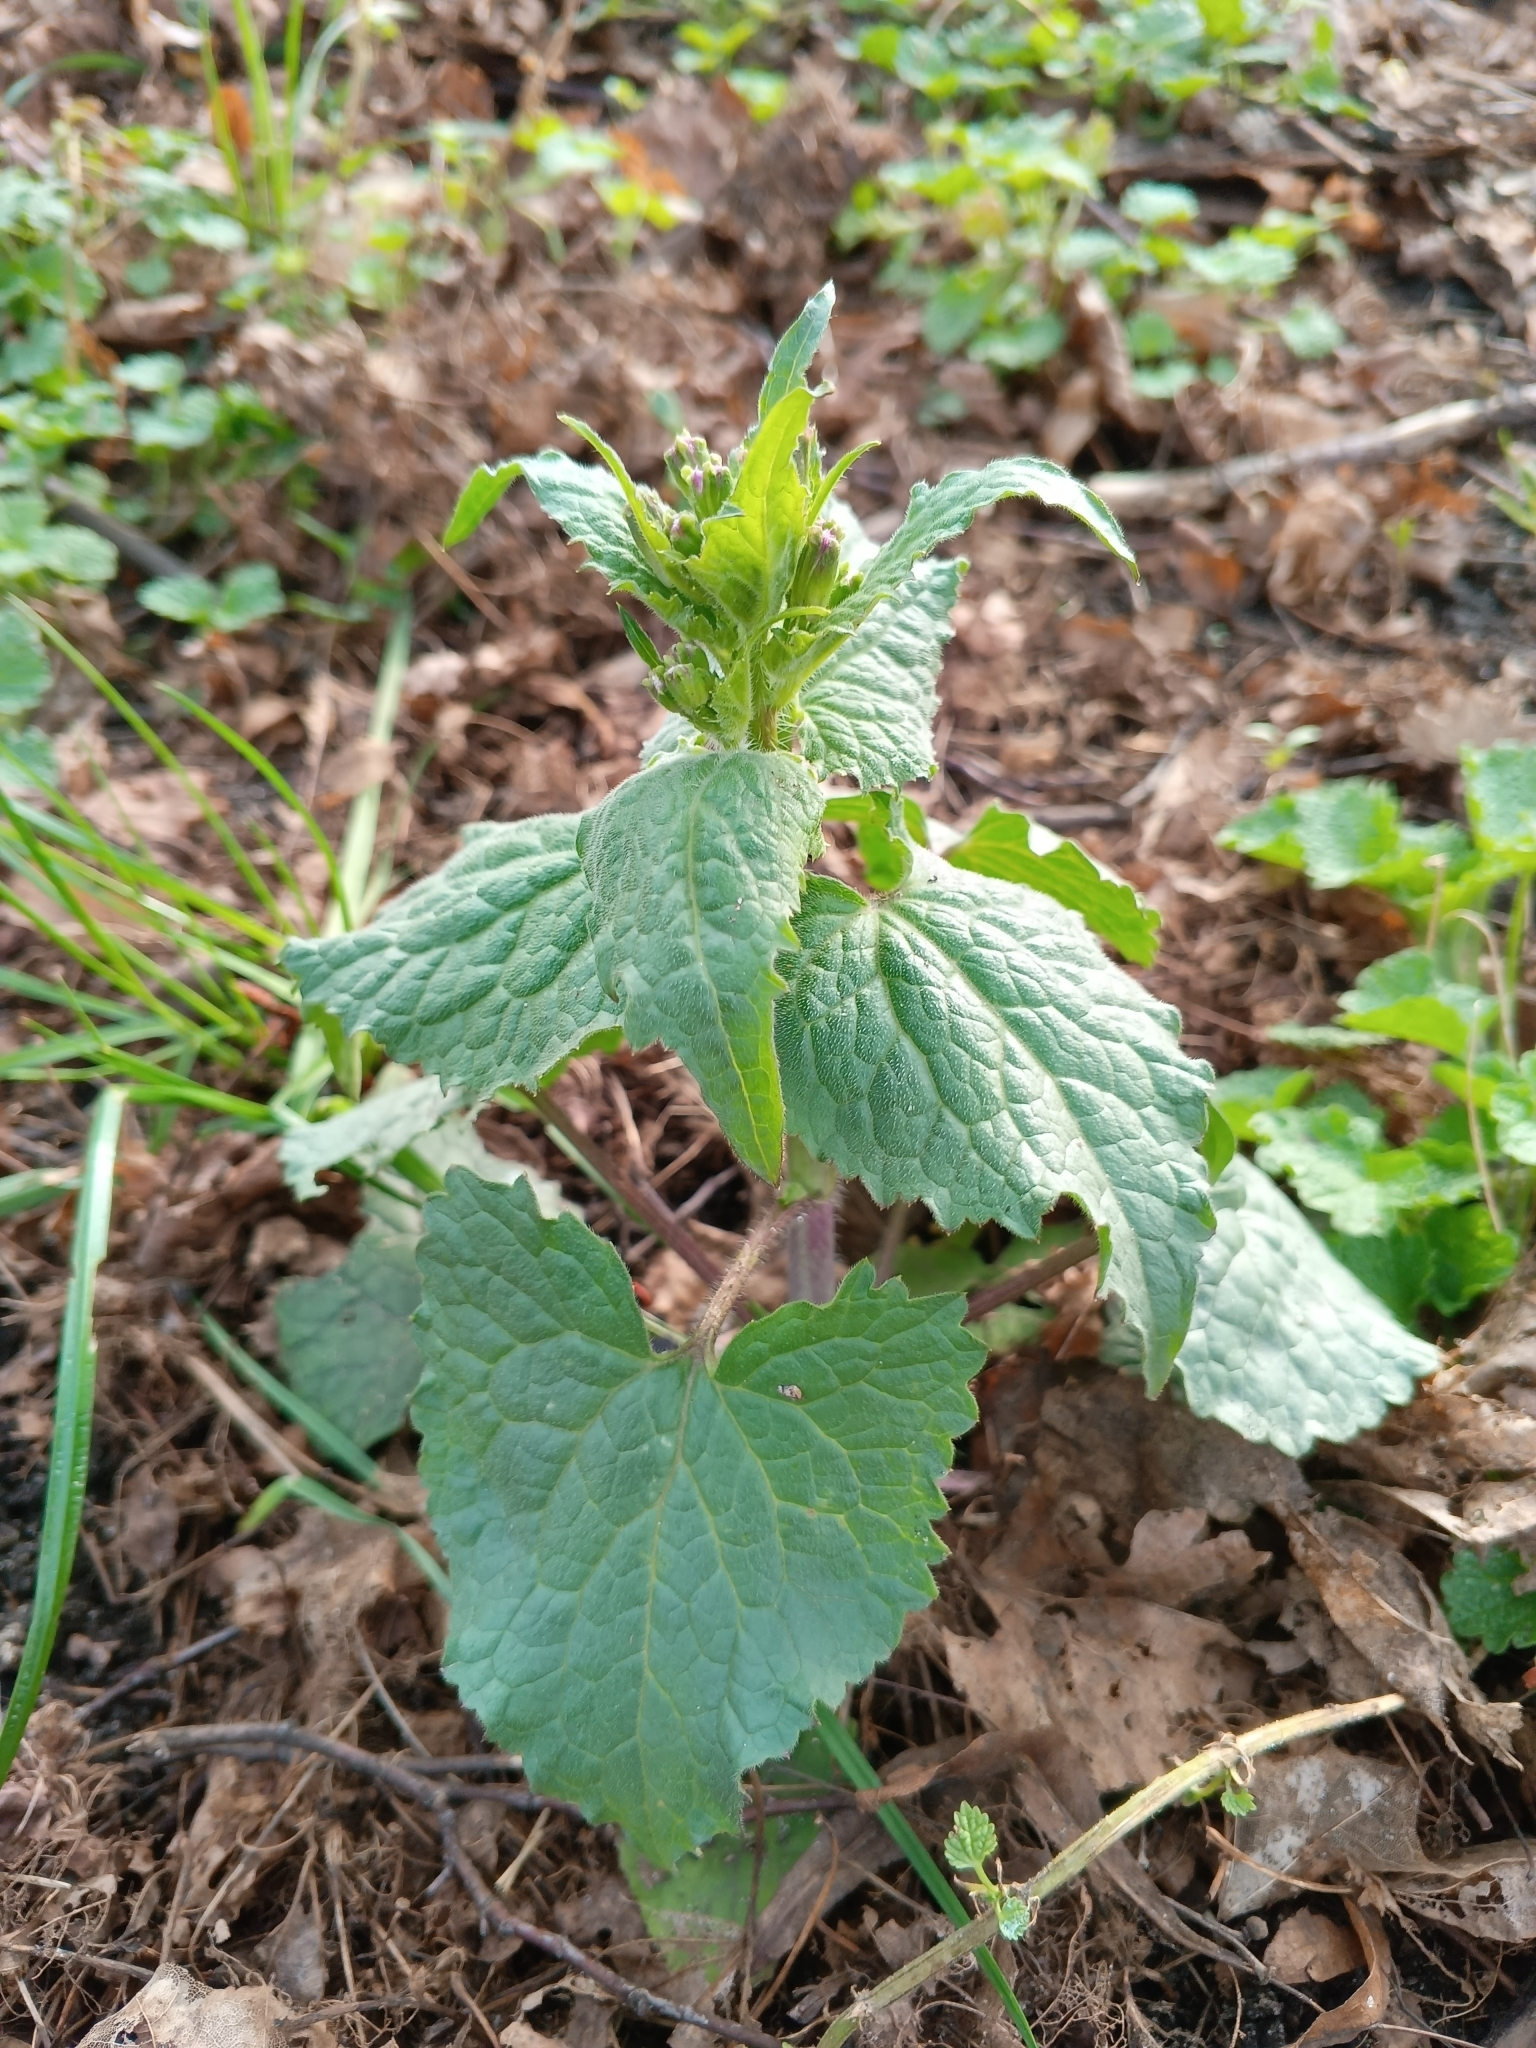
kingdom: Plantae
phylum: Tracheophyta
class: Magnoliopsida
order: Brassicales
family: Brassicaceae
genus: Lunaria
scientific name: Lunaria annua
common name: Honesty
